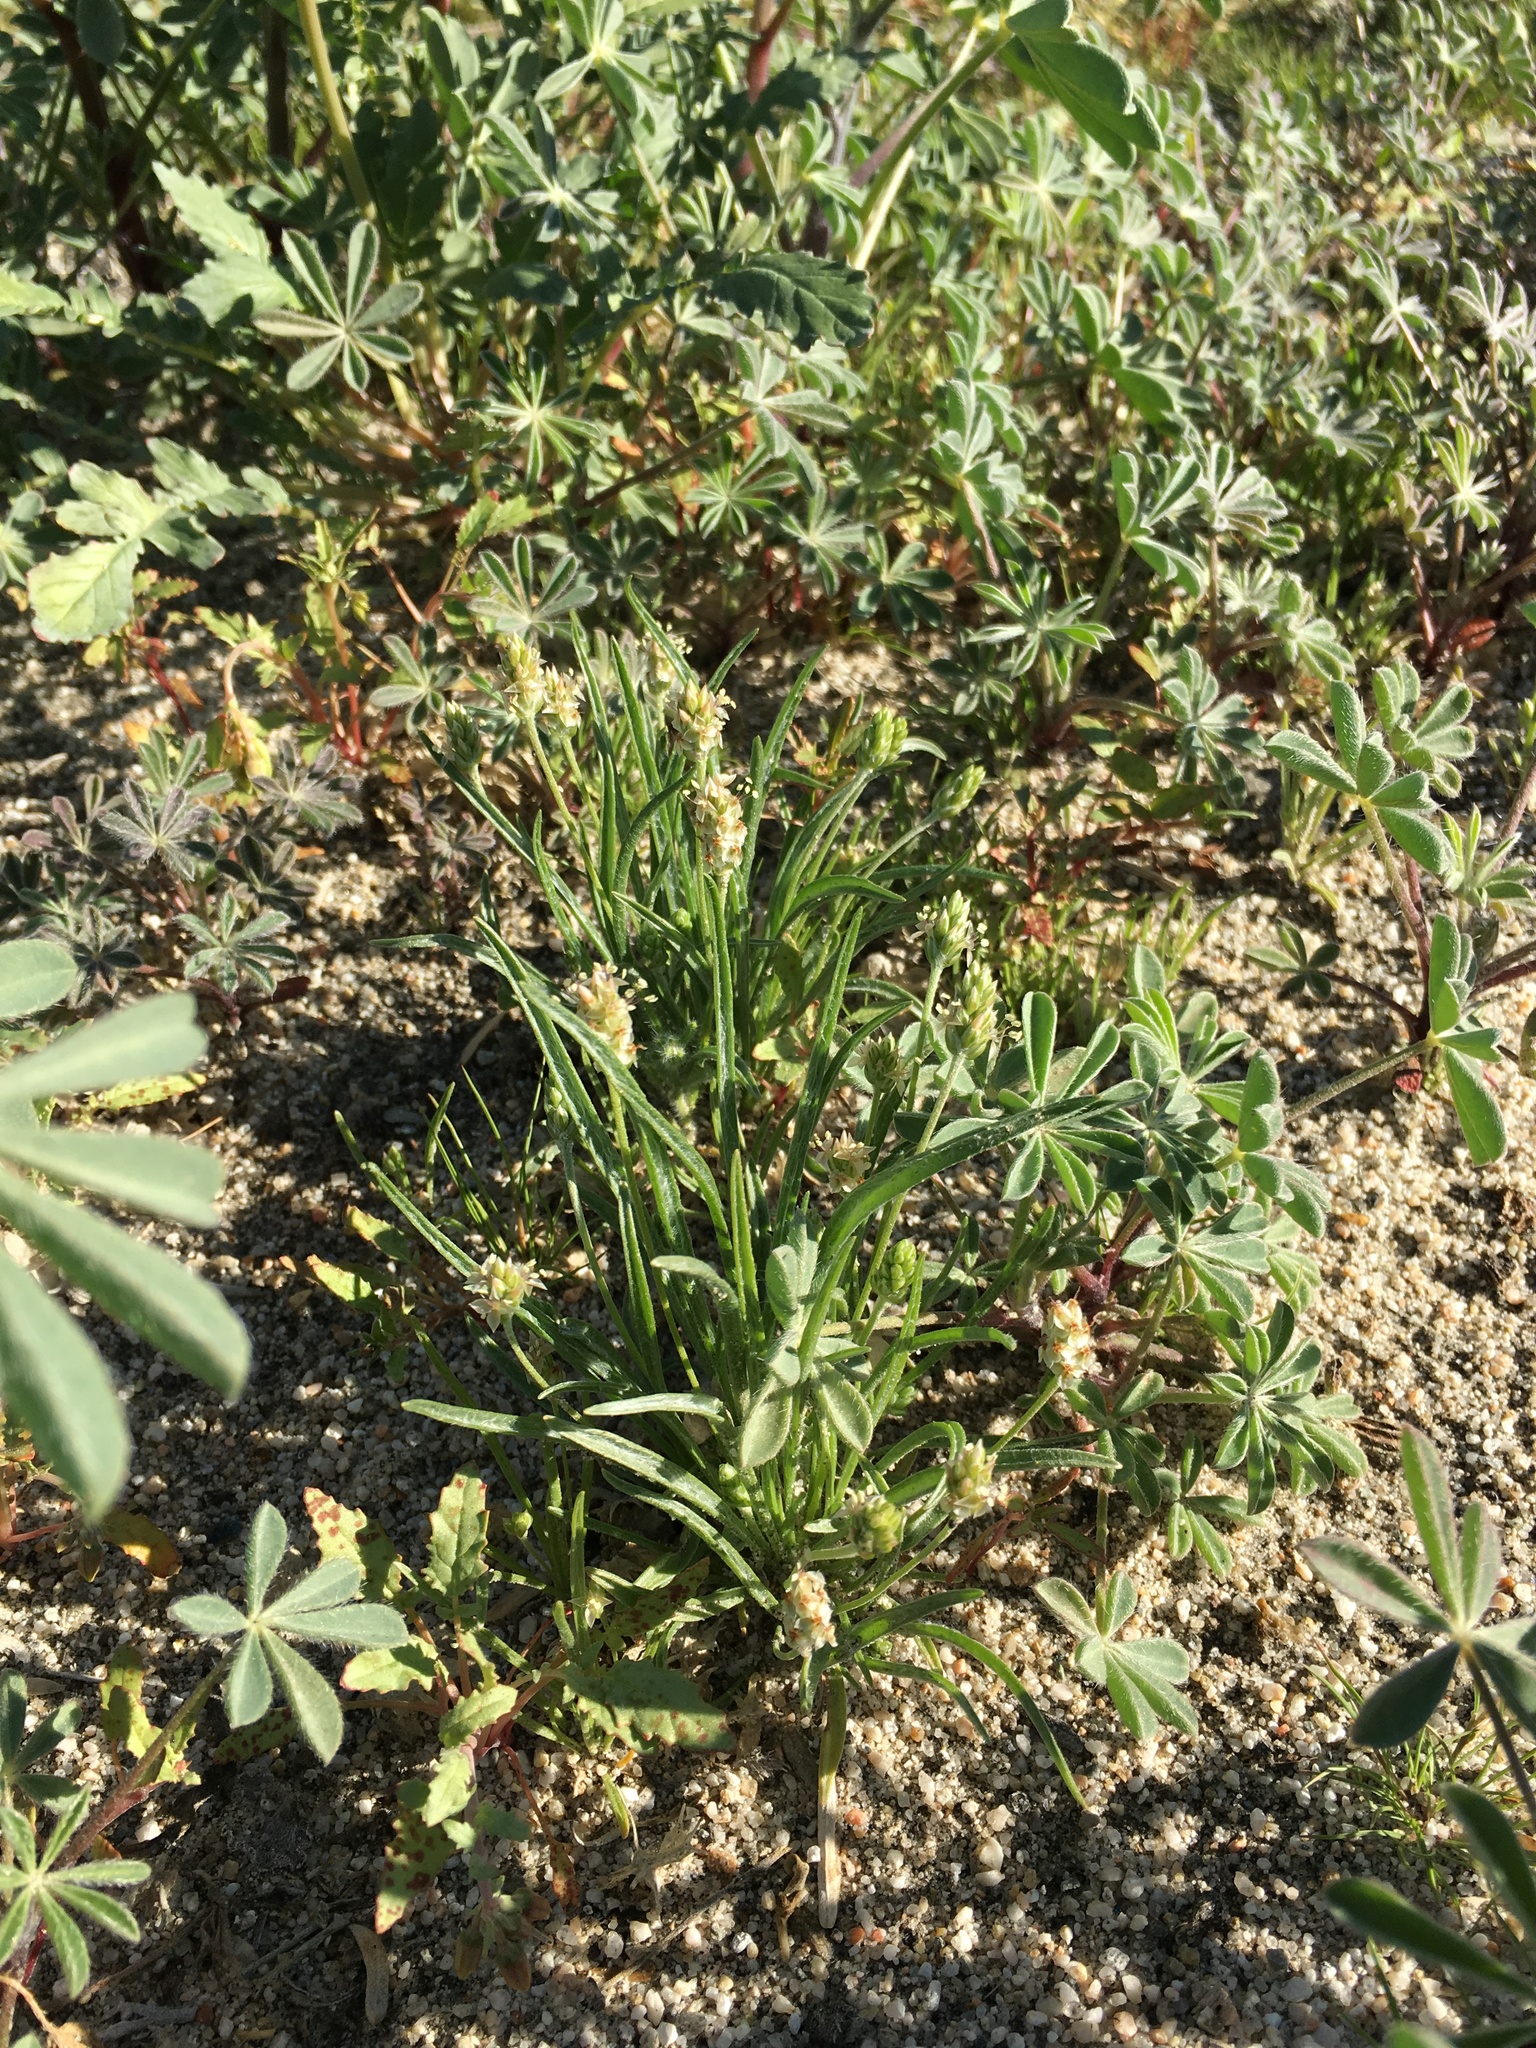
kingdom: Plantae
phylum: Tracheophyta
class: Magnoliopsida
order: Lamiales
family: Plantaginaceae
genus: Plantago
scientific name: Plantago ovata
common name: Blond plantain
